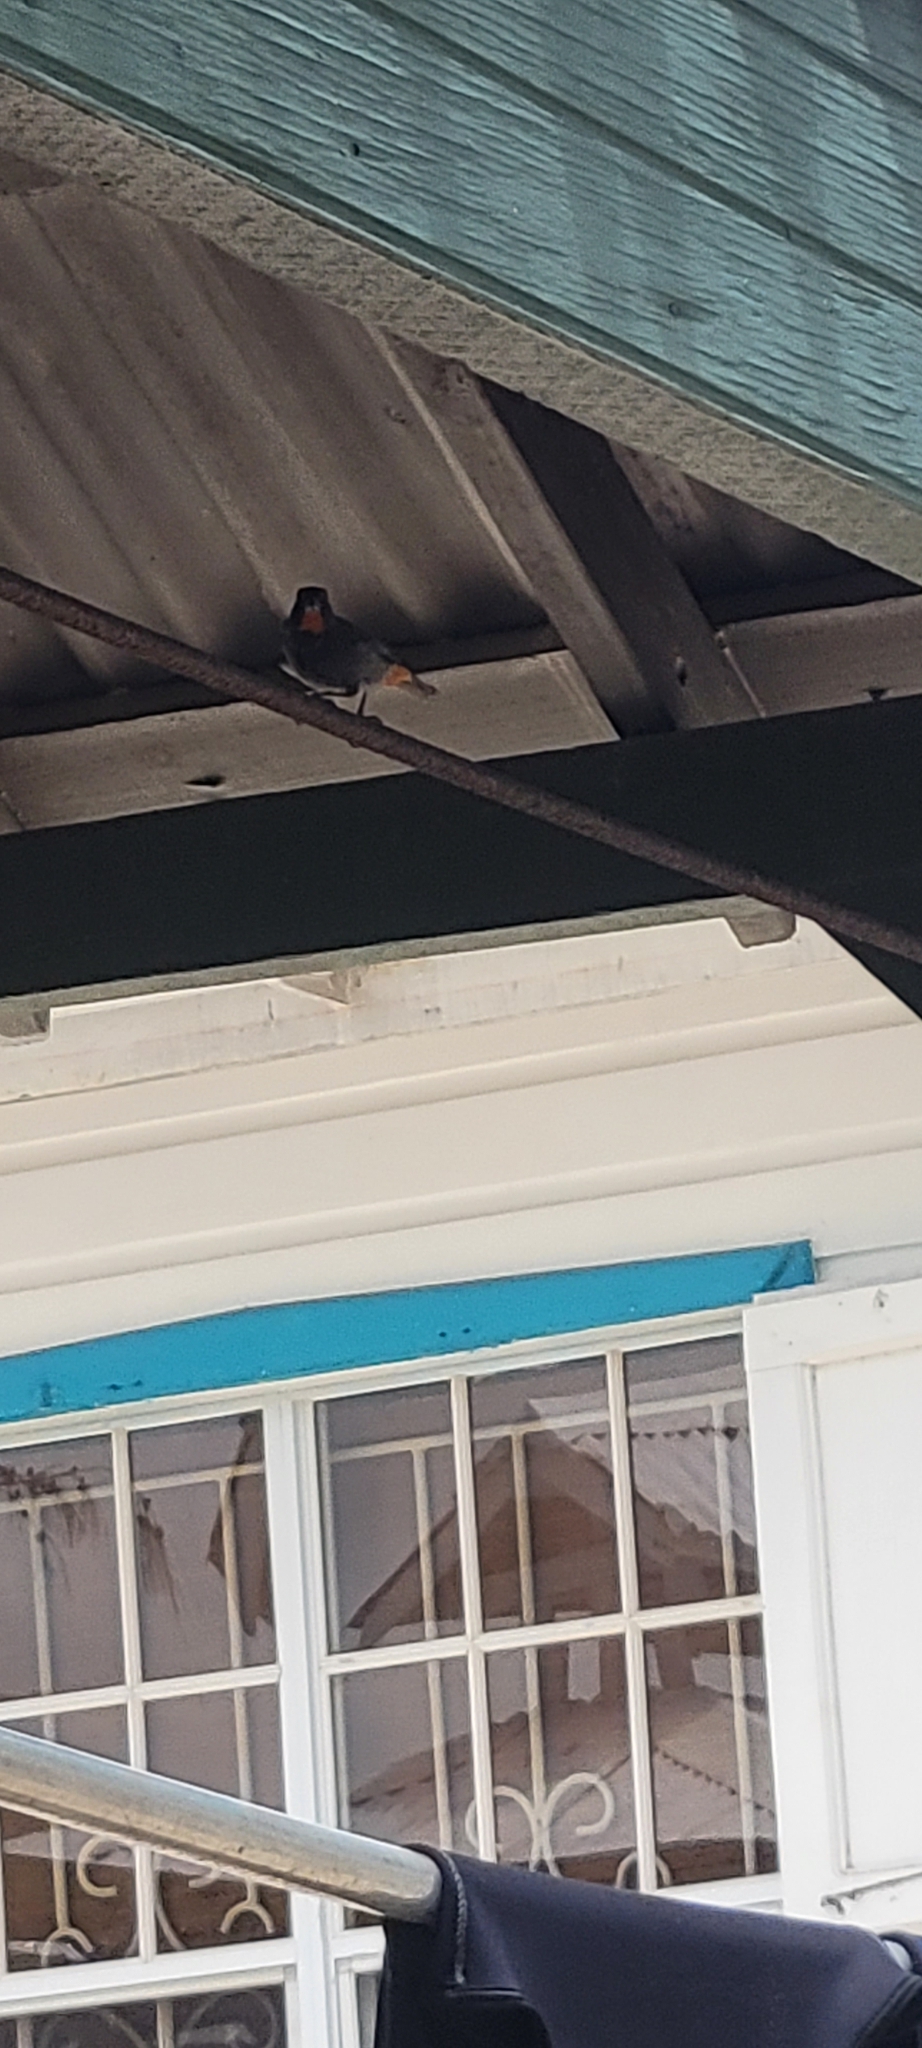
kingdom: Animalia
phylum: Chordata
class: Aves
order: Passeriformes
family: Thraupidae
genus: Loxigilla
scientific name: Loxigilla noctis
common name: Lesser antillean bullfinch
